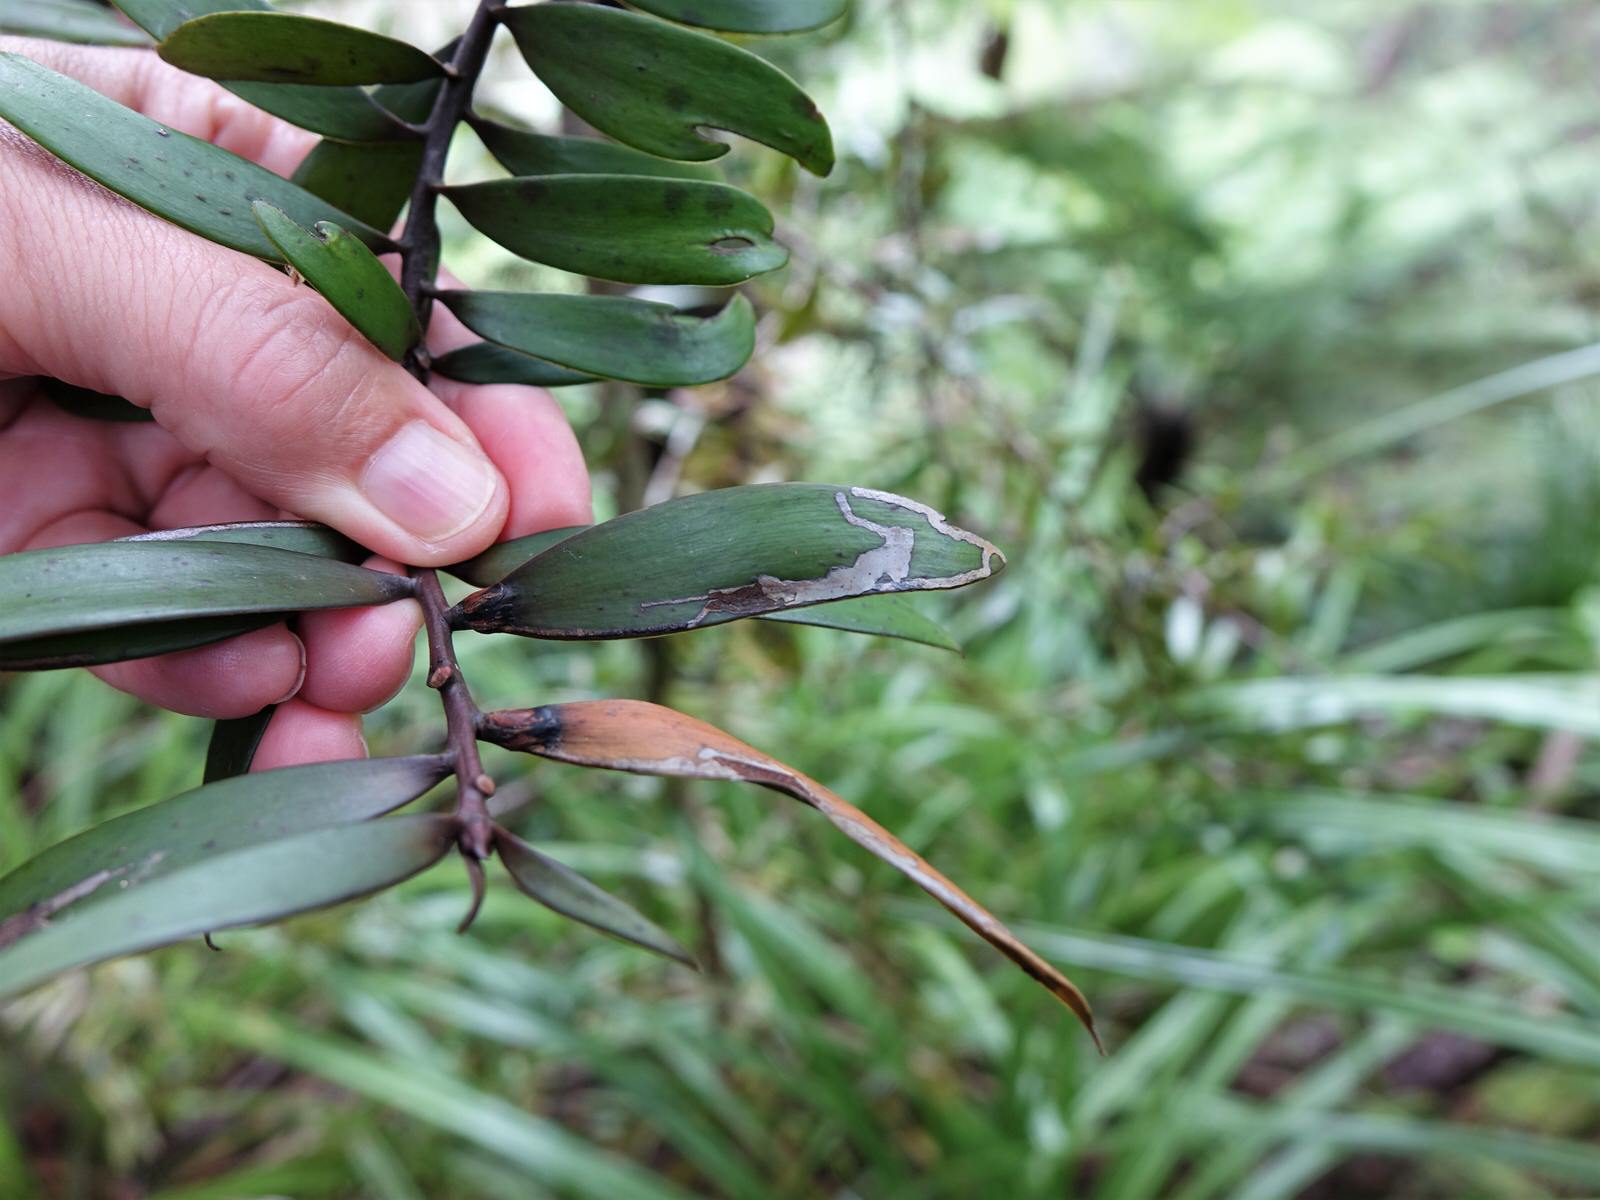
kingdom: Animalia
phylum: Arthropoda
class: Insecta
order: Lepidoptera
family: Gracillariidae
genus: Acrocercops
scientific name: Acrocercops leucotoma
